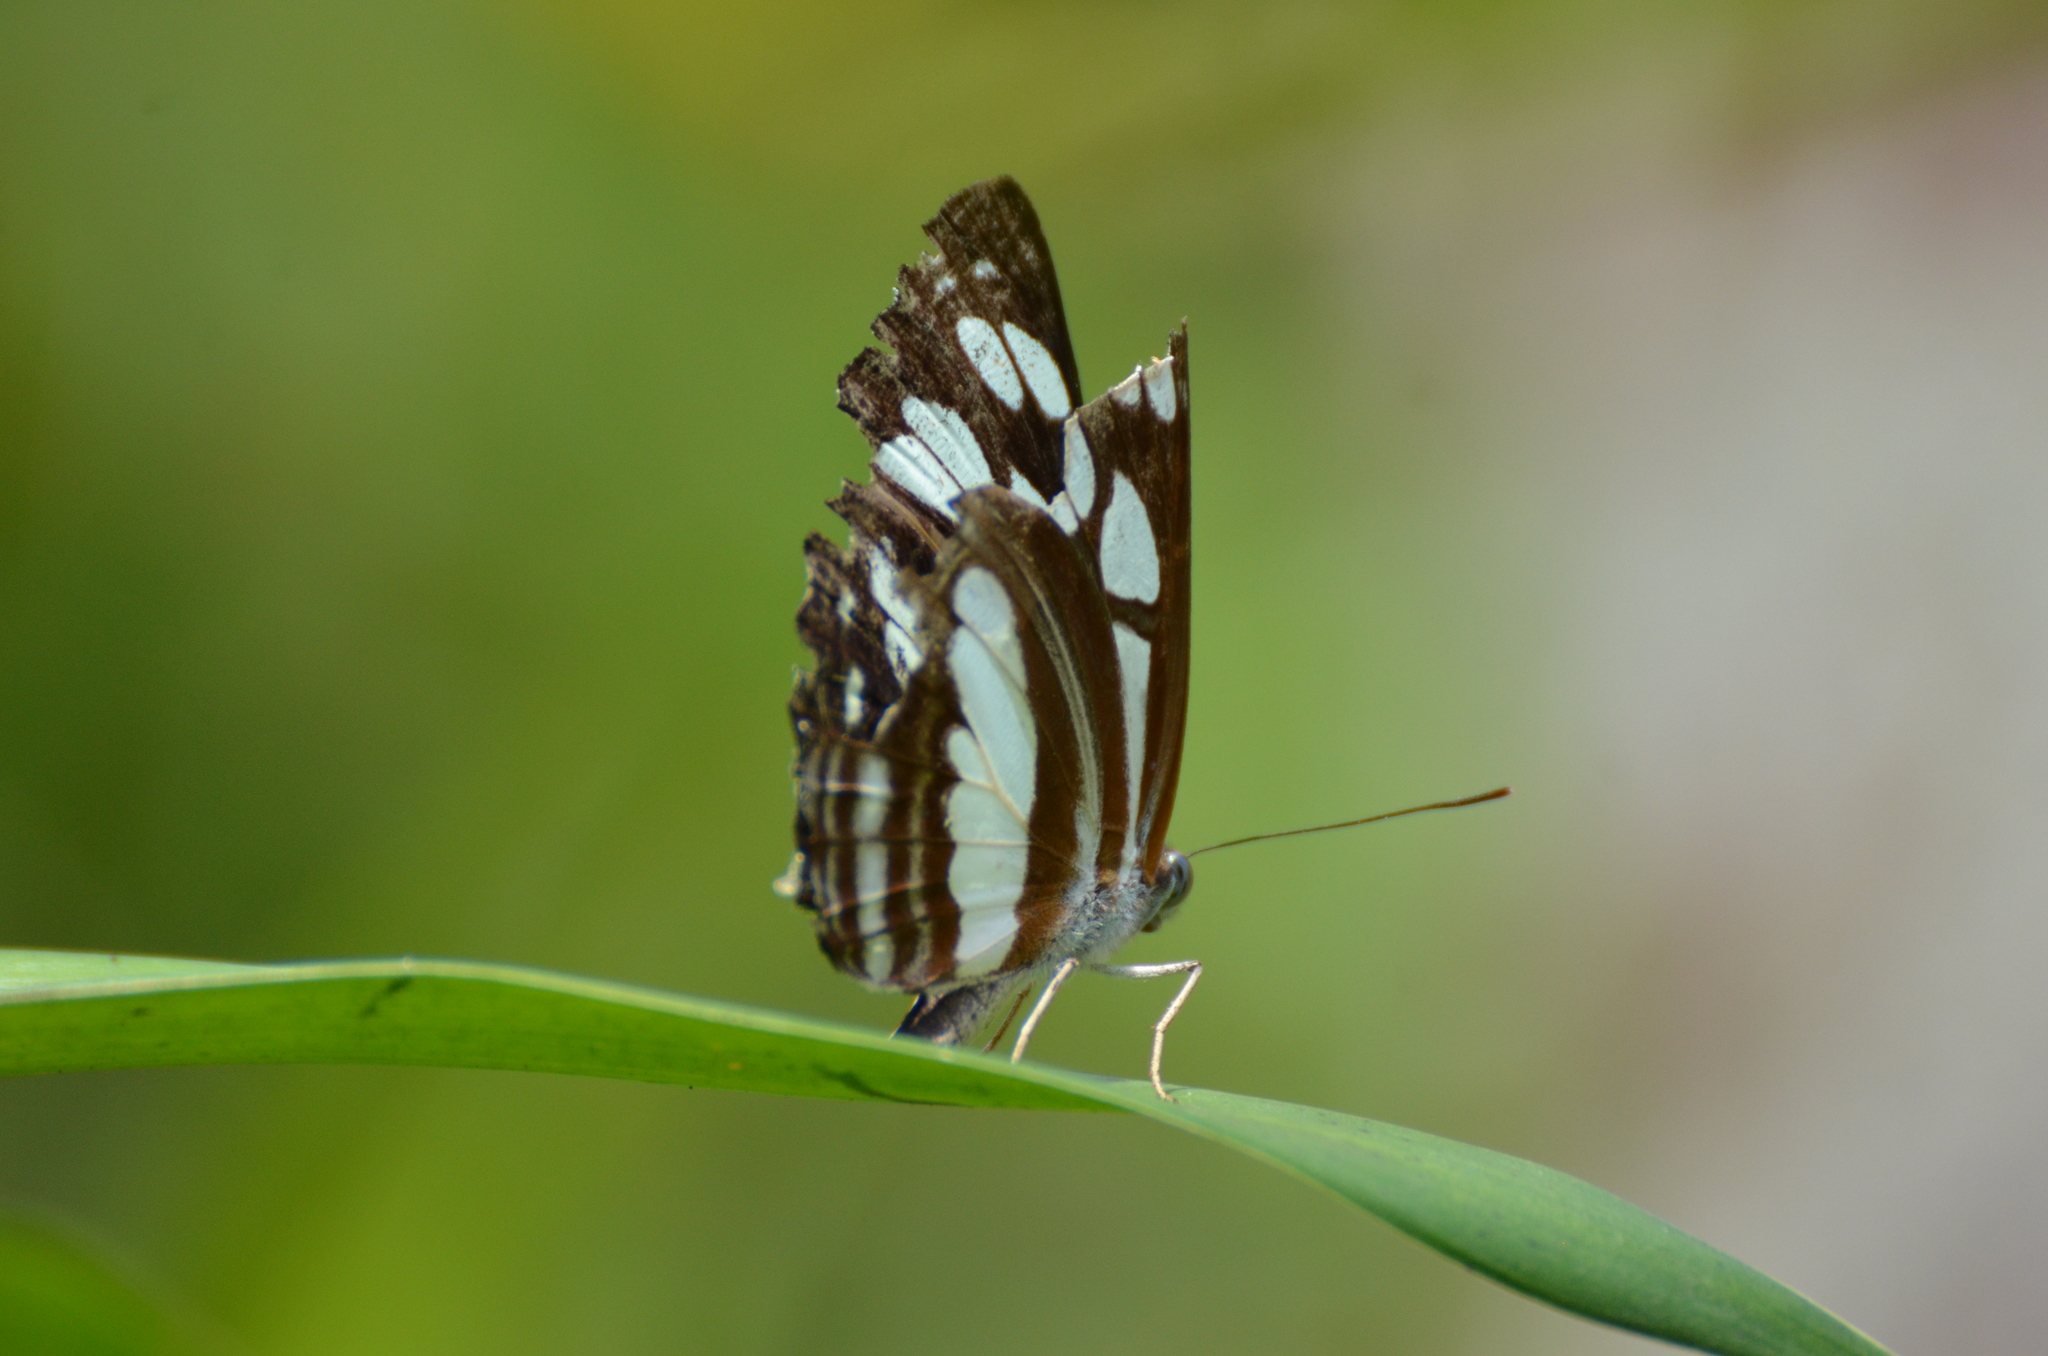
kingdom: Animalia
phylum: Arthropoda
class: Insecta
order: Lepidoptera
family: Nymphalidae
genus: Neptis
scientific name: Neptis hylas
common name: Common sailer
